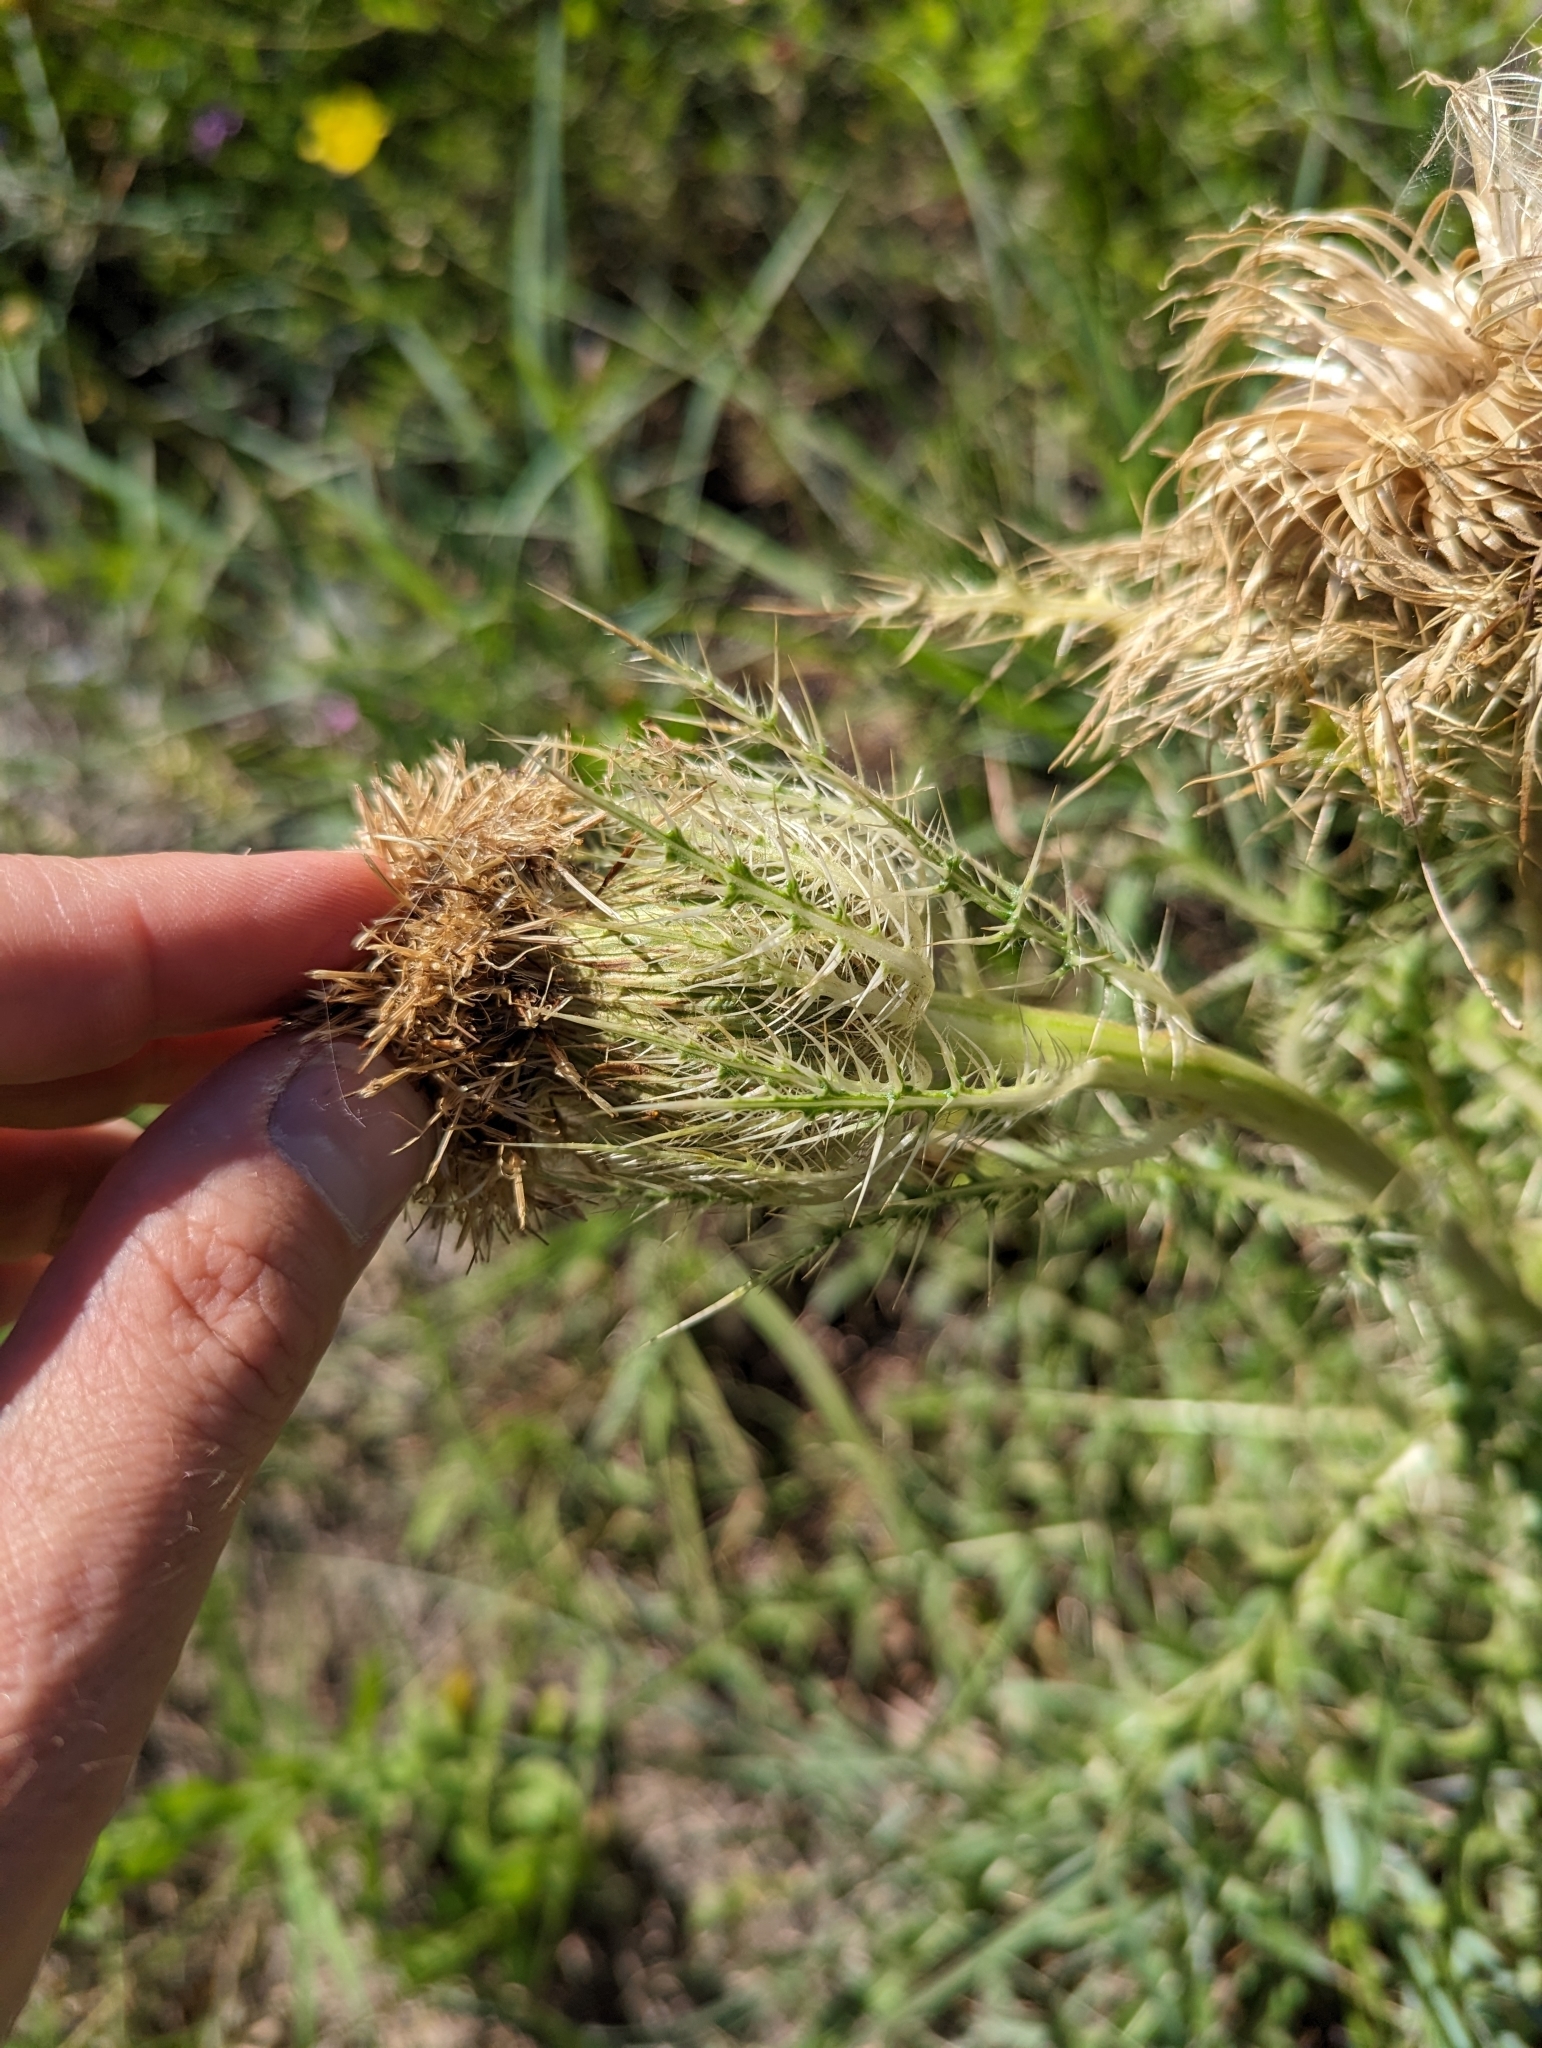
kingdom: Plantae
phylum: Tracheophyta
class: Magnoliopsida
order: Asterales
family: Asteraceae
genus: Cirsium
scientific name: Cirsium horridulum
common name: Bristly thistle
